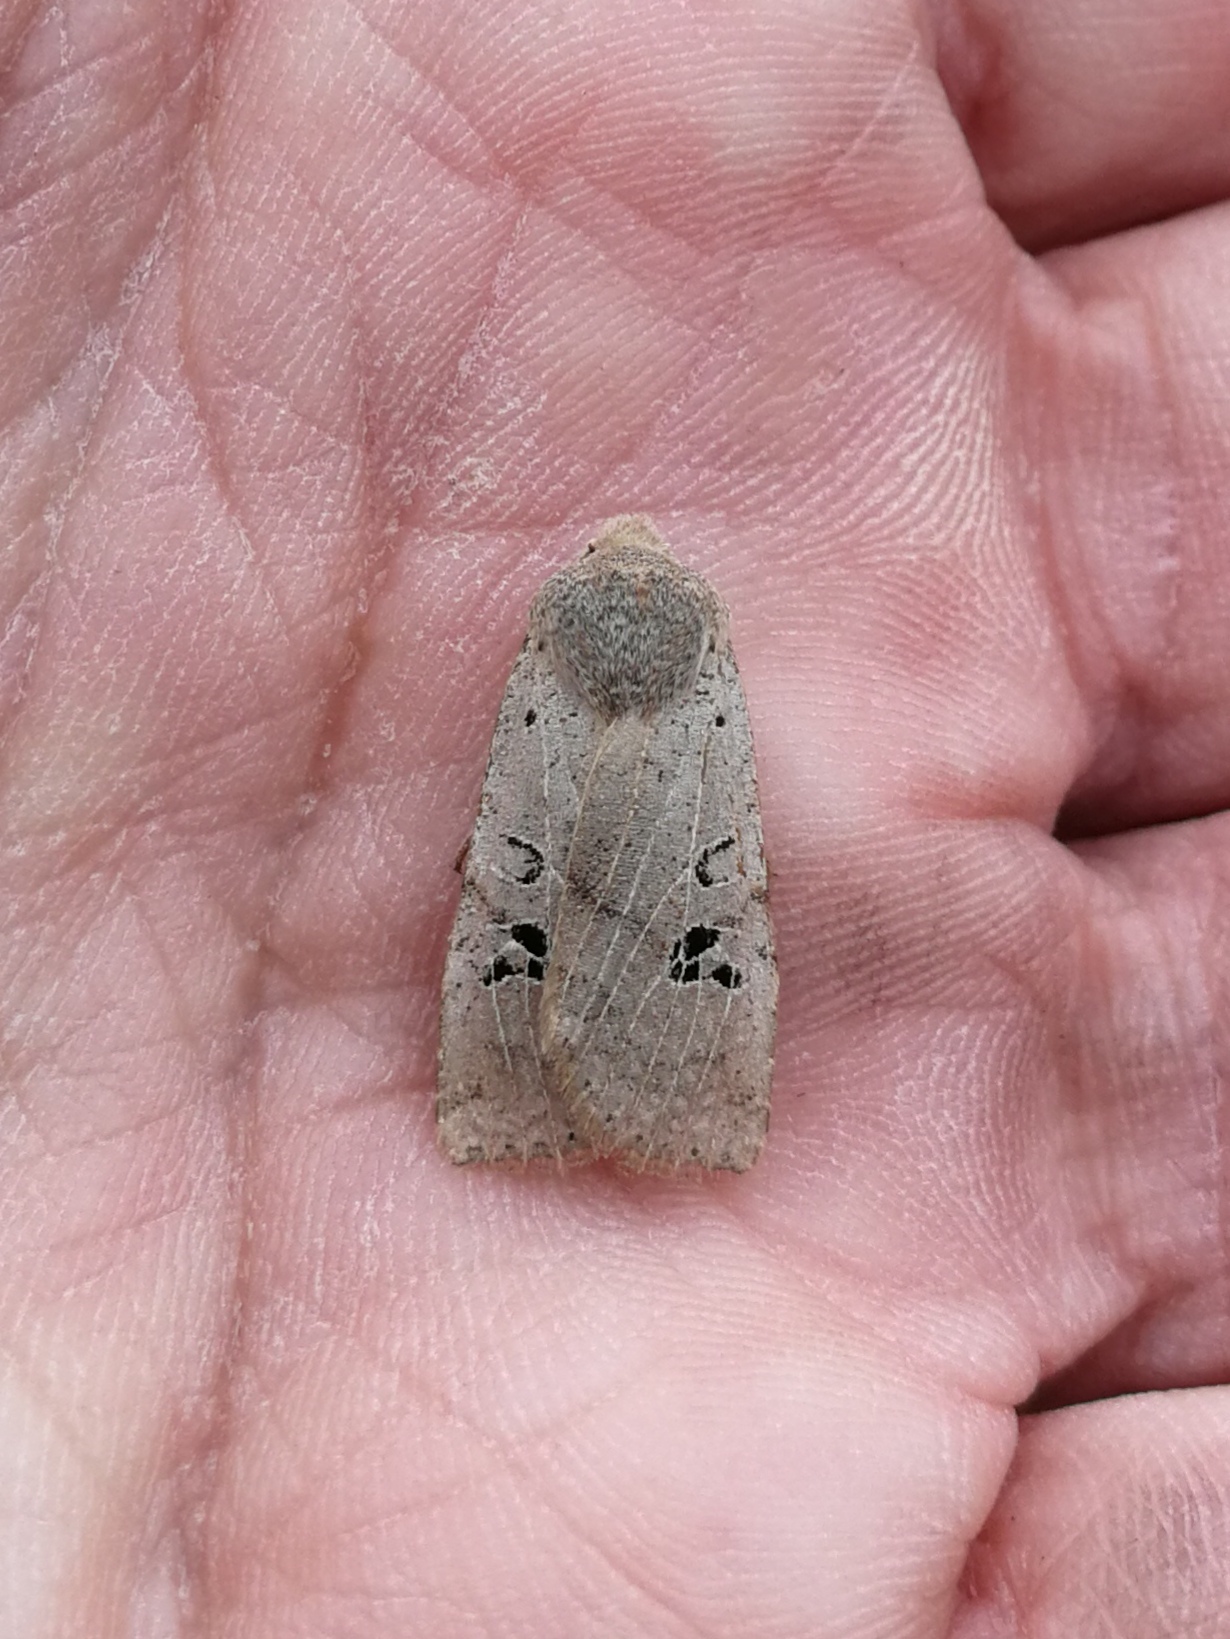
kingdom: Animalia
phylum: Arthropoda
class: Insecta
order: Lepidoptera
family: Noctuidae
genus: Conistra
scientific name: Conistra rubiginosa
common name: Black-spotted chestnut
